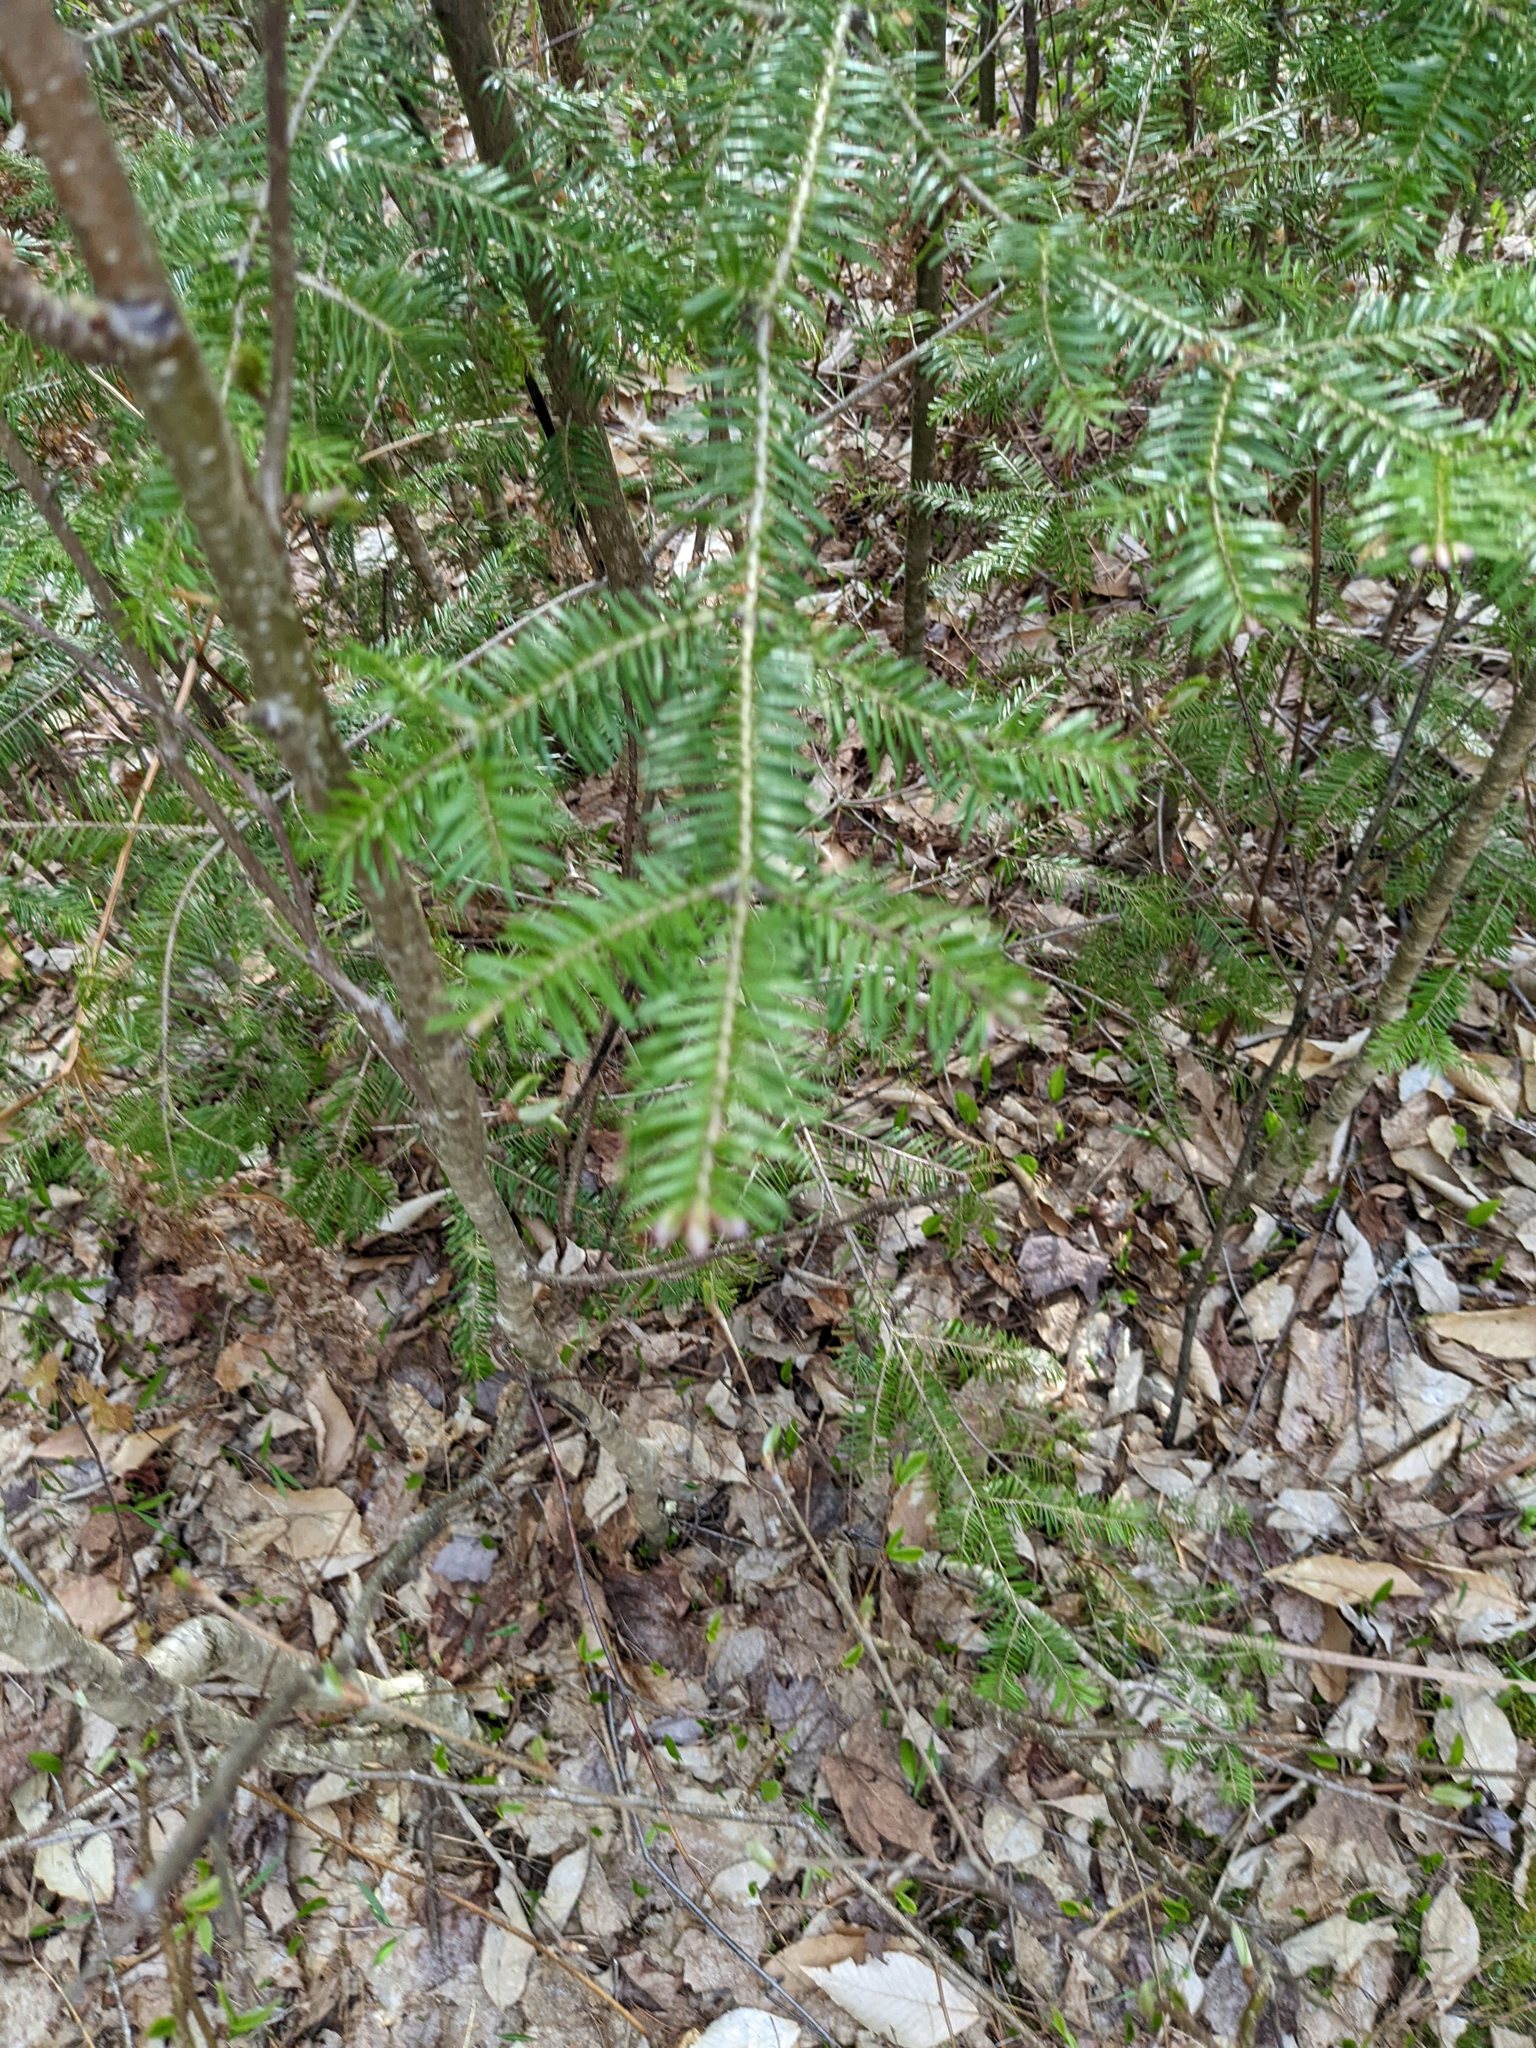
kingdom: Plantae
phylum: Tracheophyta
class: Pinopsida
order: Pinales
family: Pinaceae
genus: Abies
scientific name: Abies balsamea
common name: Balsam fir
